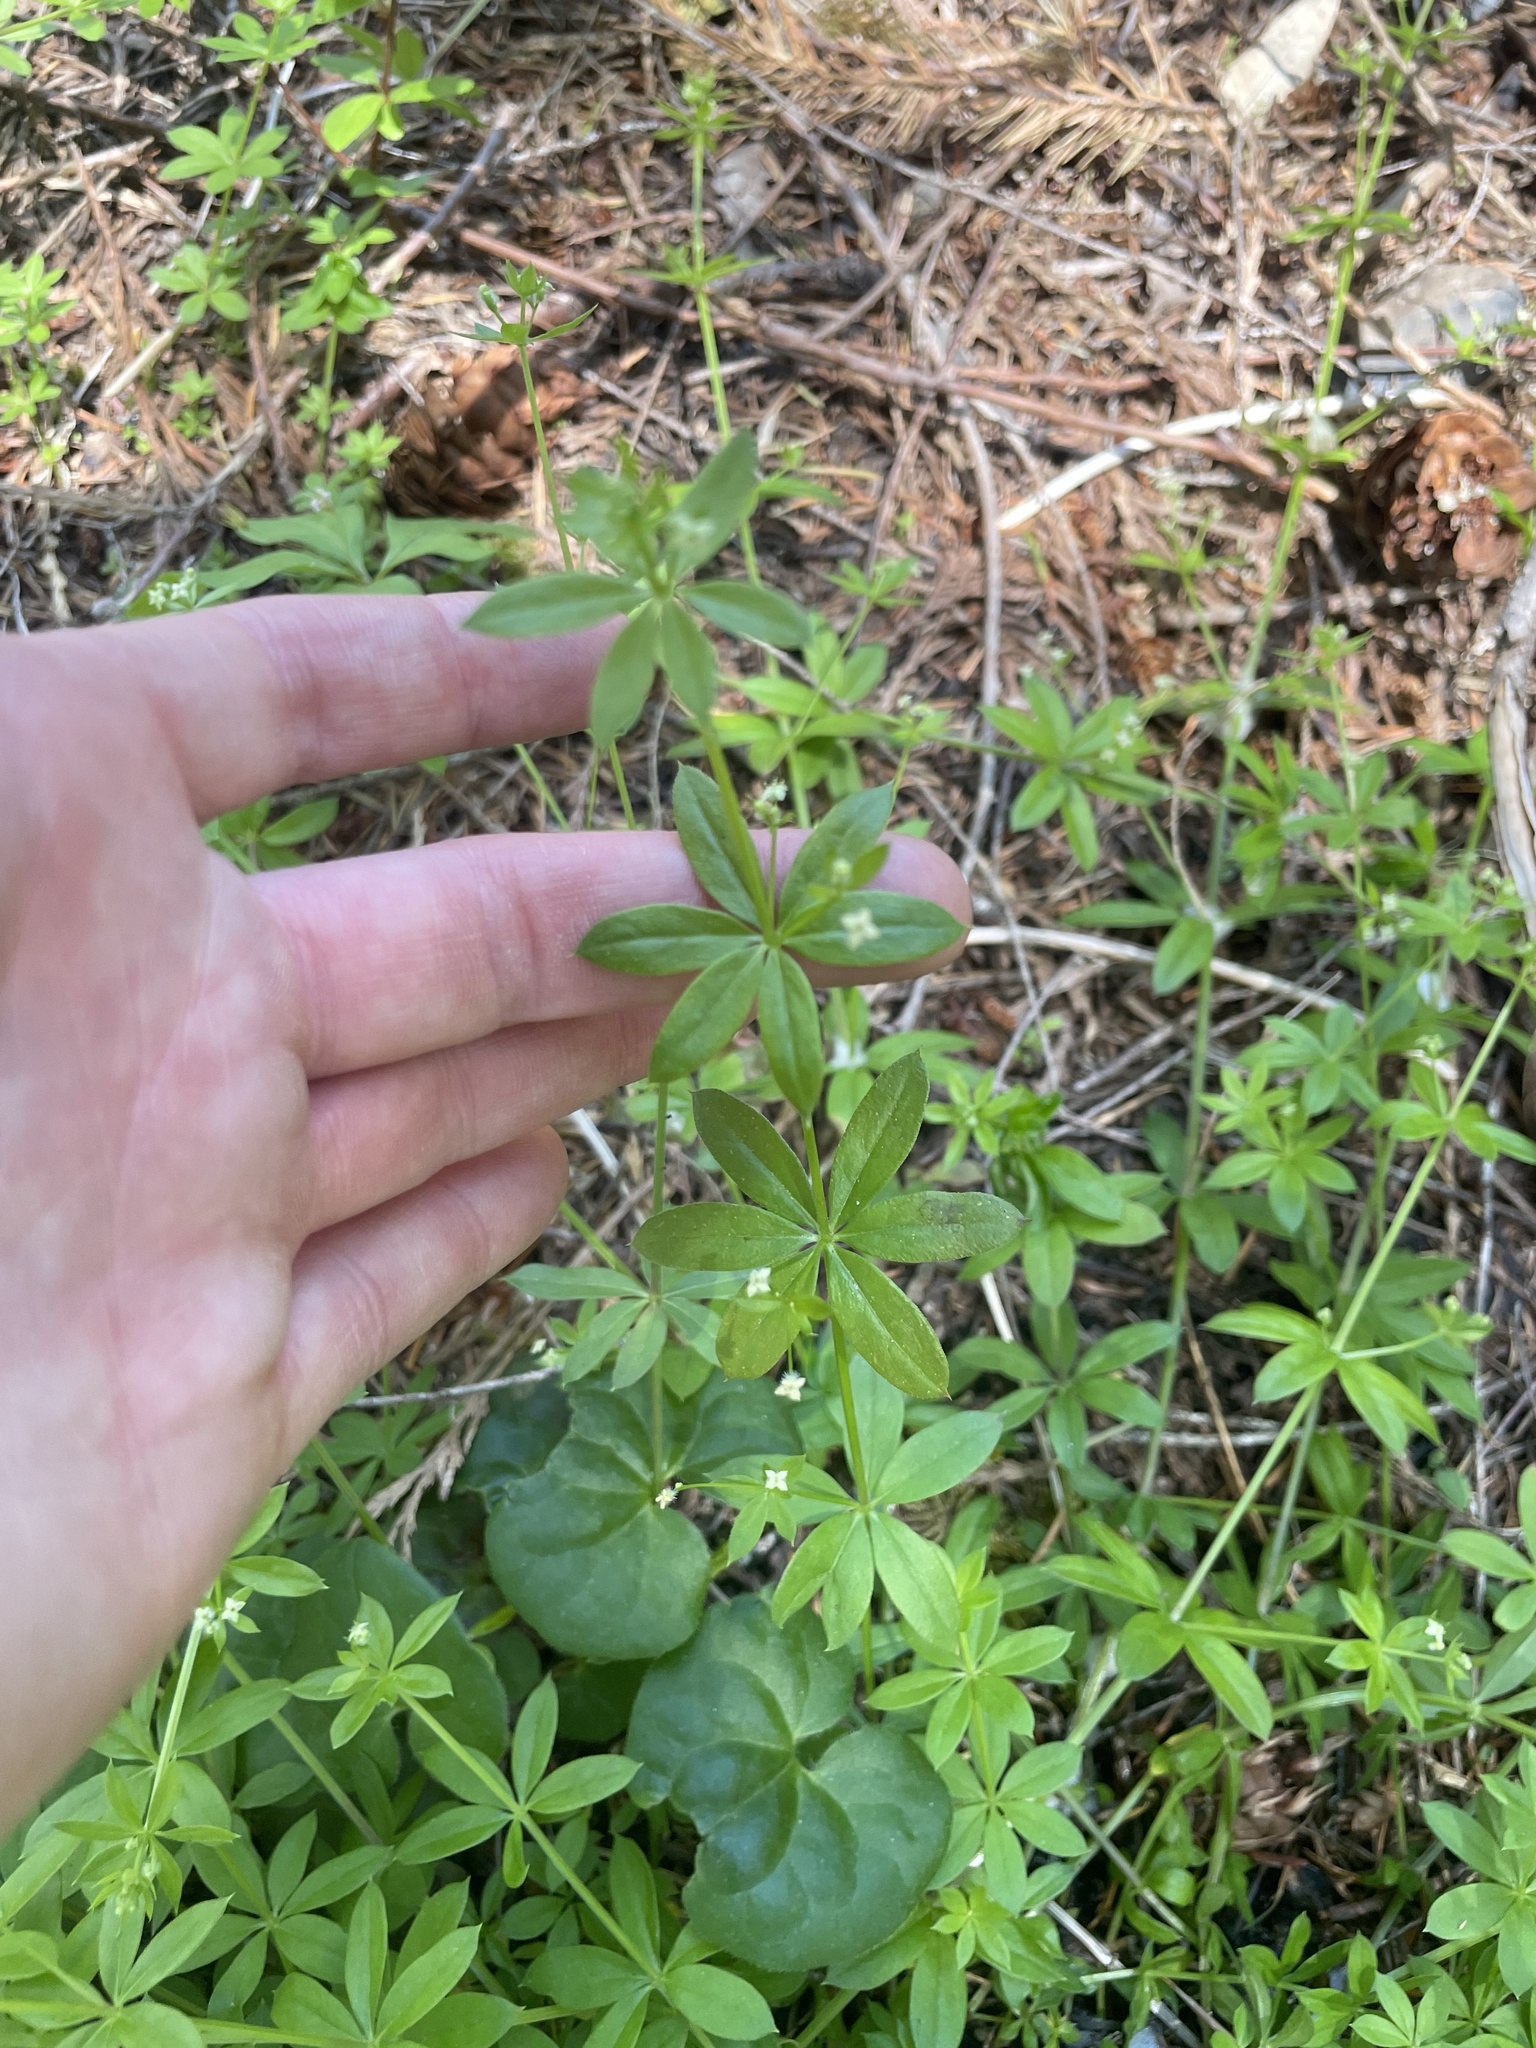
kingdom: Plantae
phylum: Tracheophyta
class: Magnoliopsida
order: Gentianales
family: Rubiaceae
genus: Galium
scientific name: Galium triflorum
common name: Fragrant bedstraw
